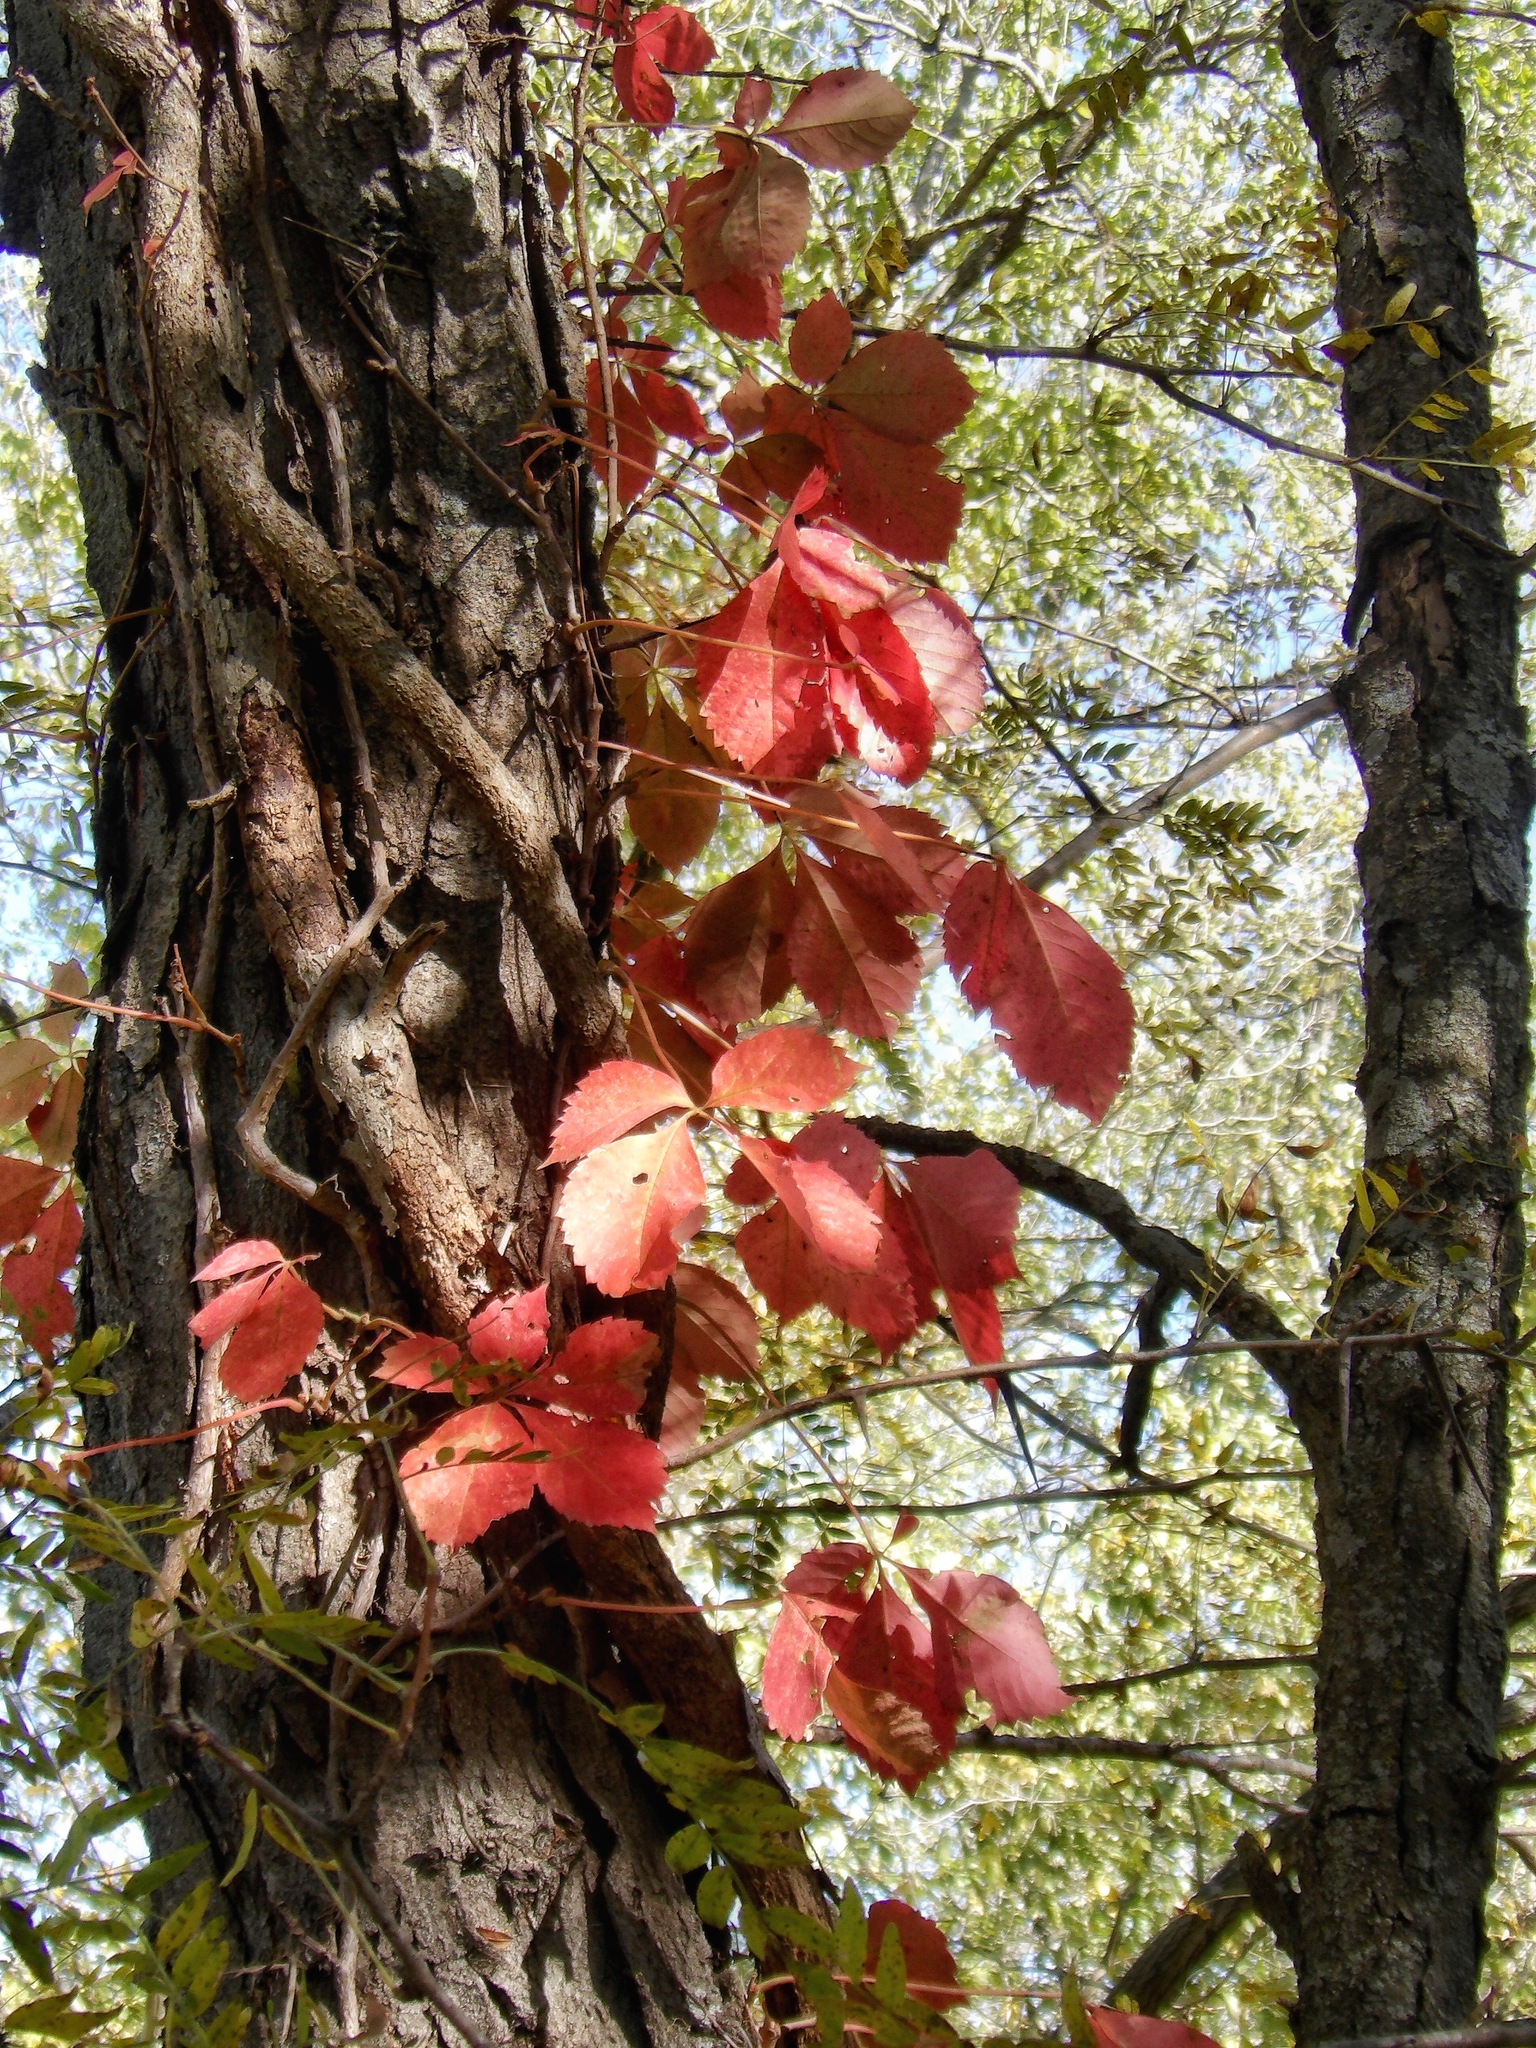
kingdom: Plantae
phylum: Tracheophyta
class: Magnoliopsida
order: Vitales
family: Vitaceae
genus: Parthenocissus
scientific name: Parthenocissus quinquefolia
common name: Virginia-creeper
